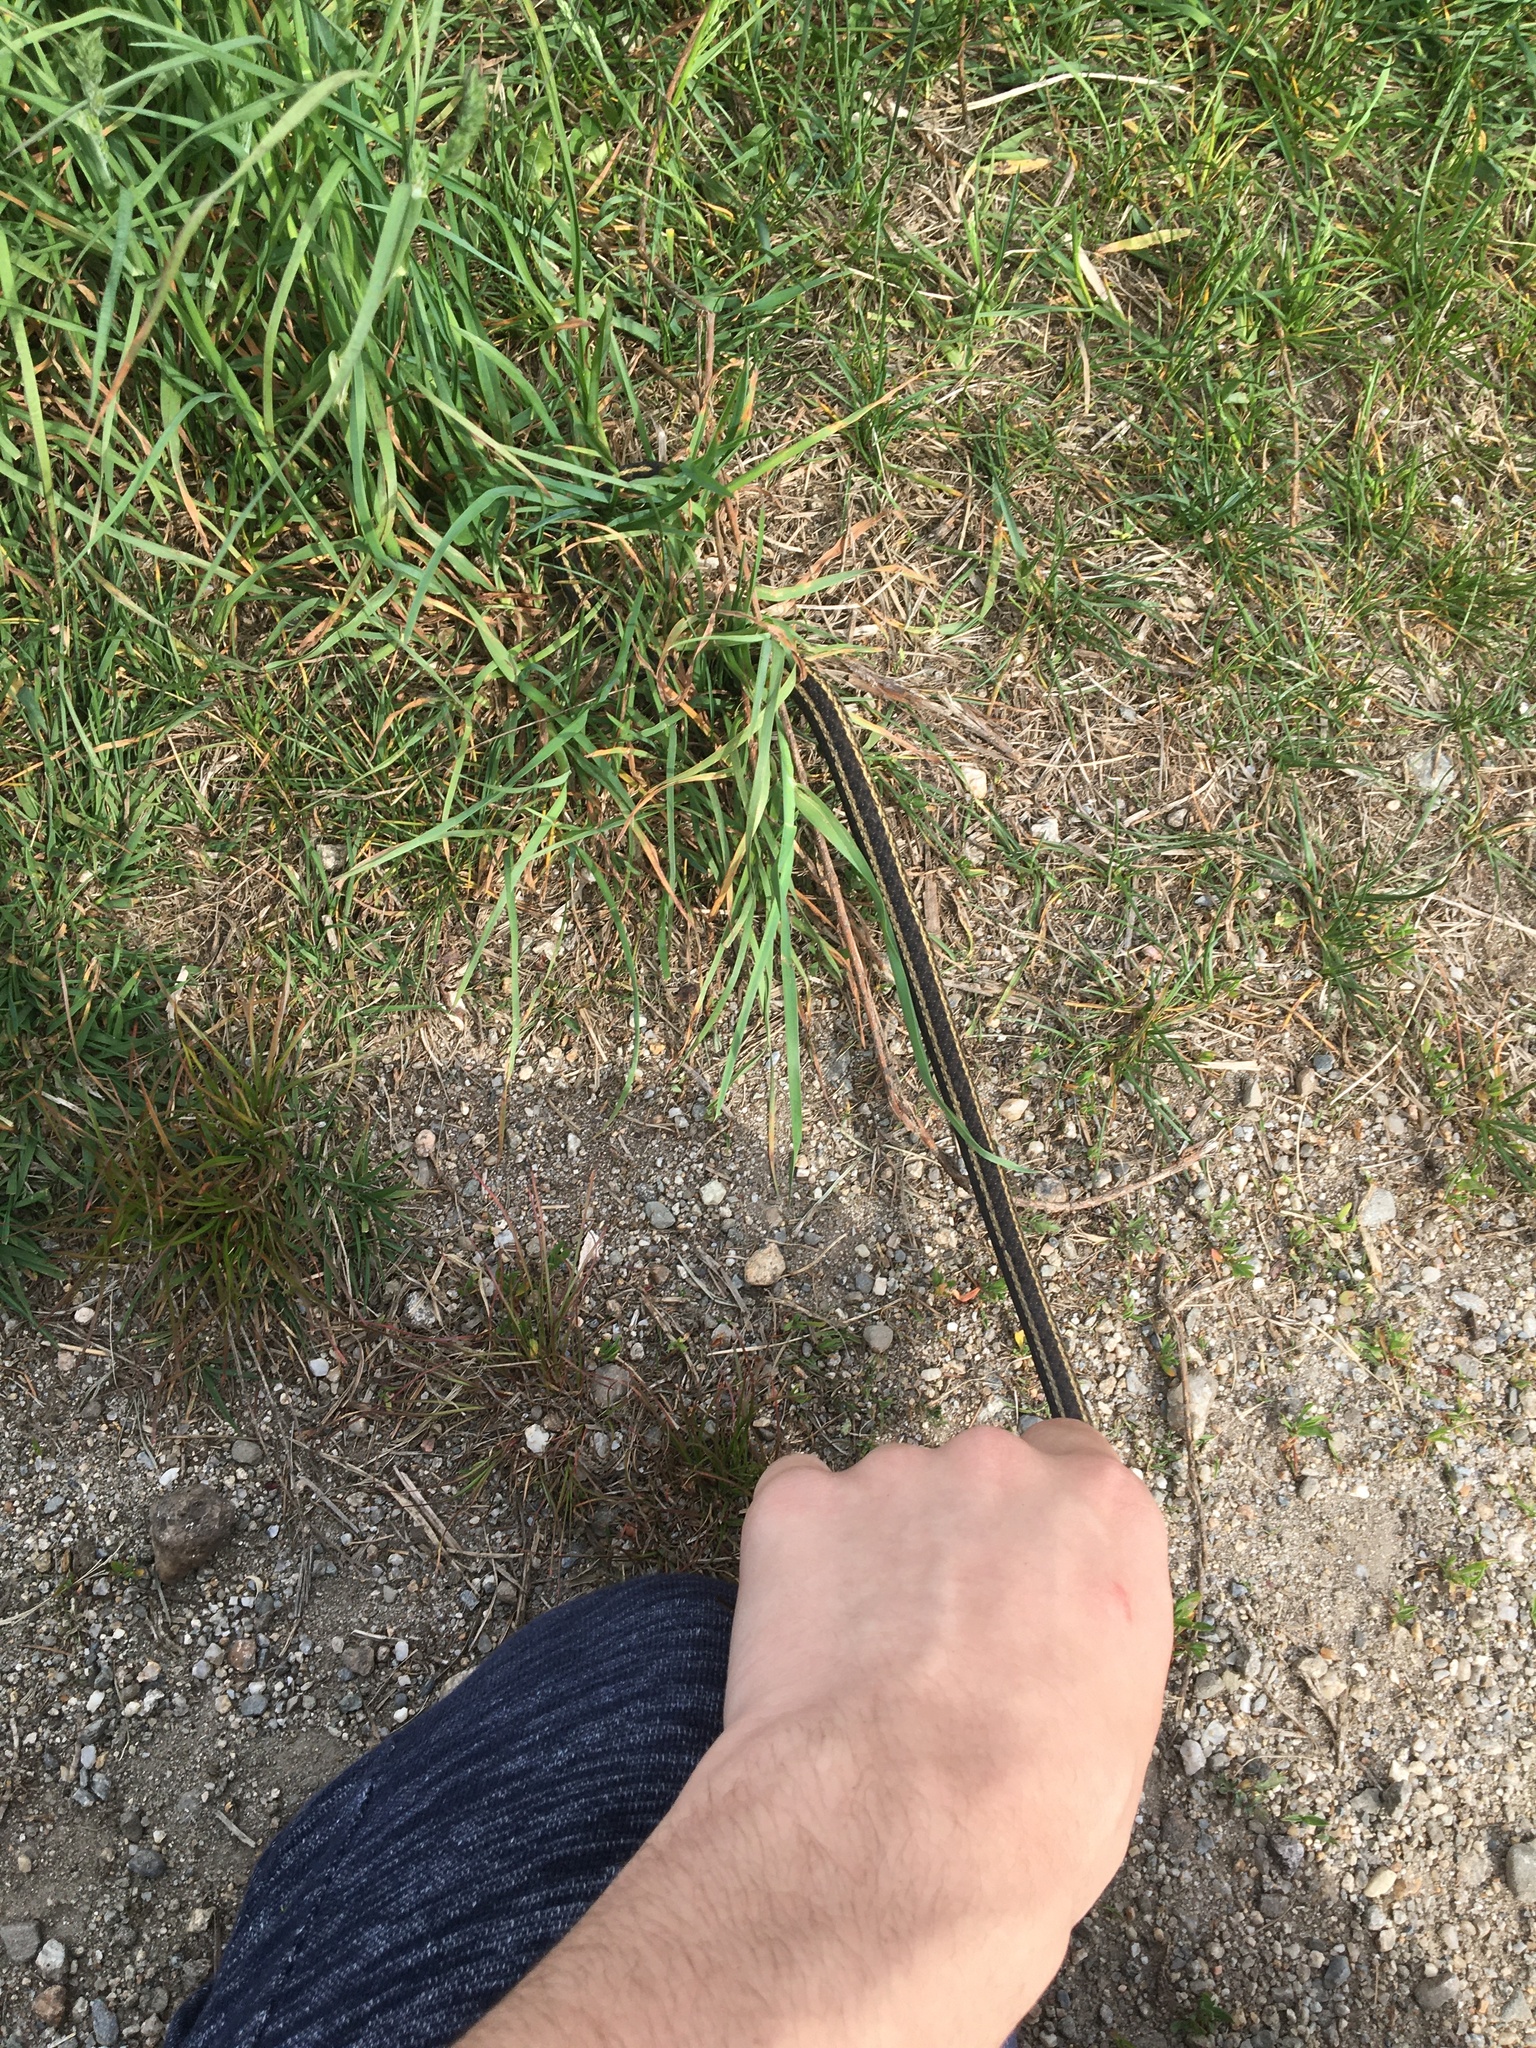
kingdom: Animalia
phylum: Chordata
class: Squamata
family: Colubridae
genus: Thamnophis
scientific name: Thamnophis sirtalis
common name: Common garter snake
